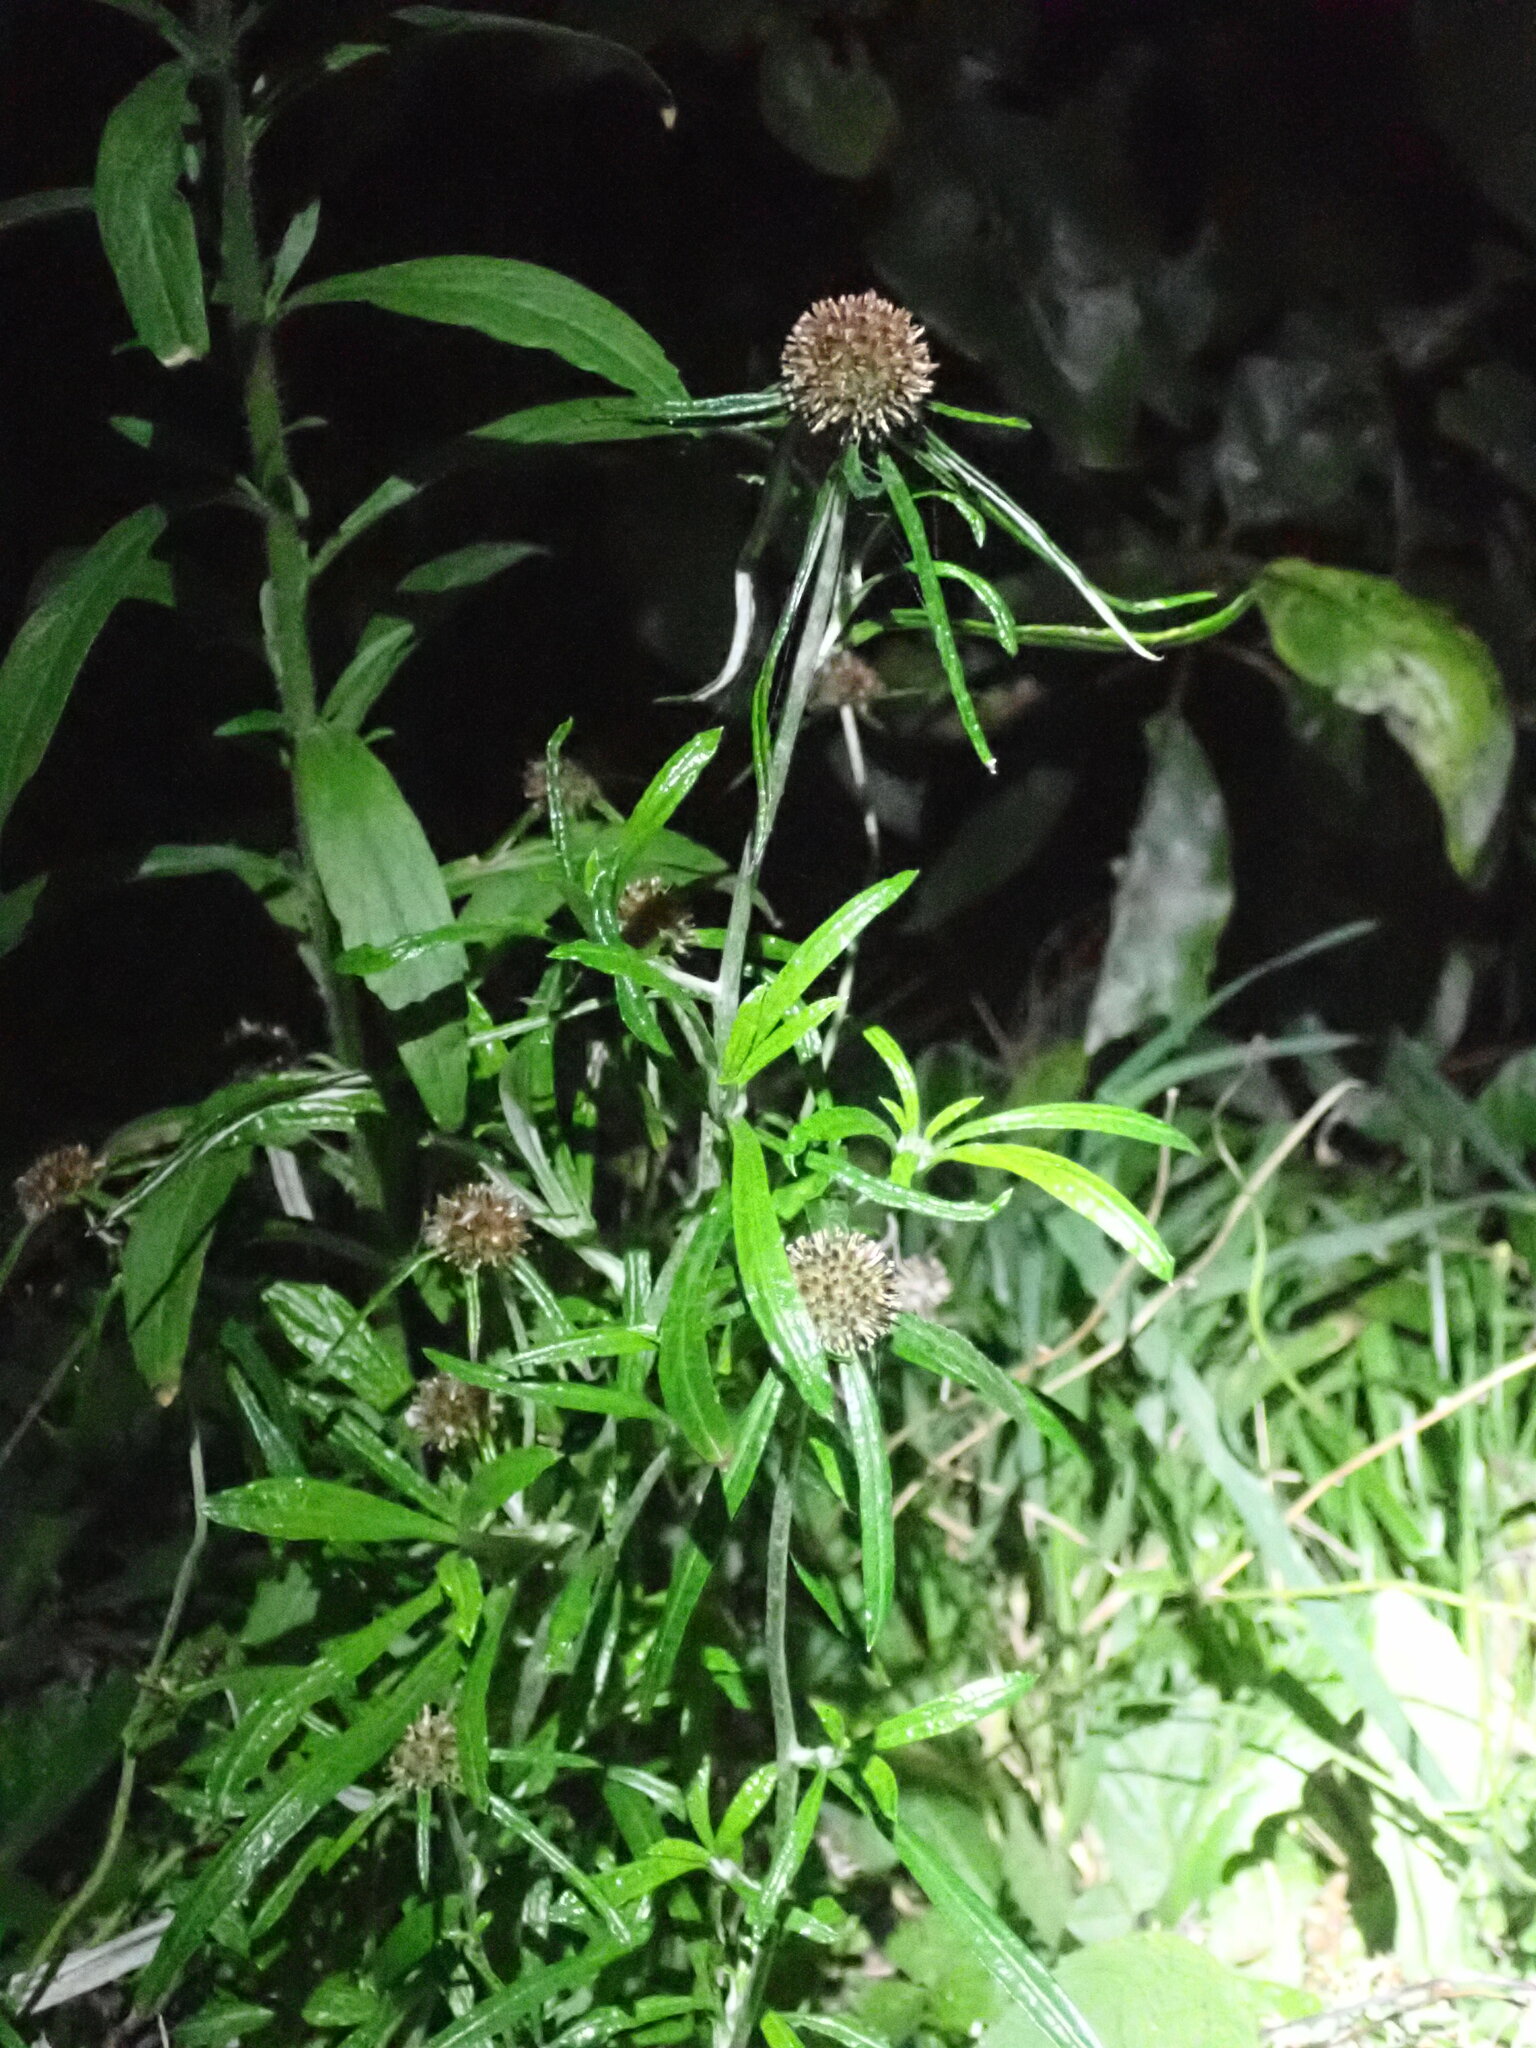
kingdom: Plantae
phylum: Tracheophyta
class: Magnoliopsida
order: Asterales
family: Asteraceae
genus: Euchiton
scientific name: Euchiton sphaericus
